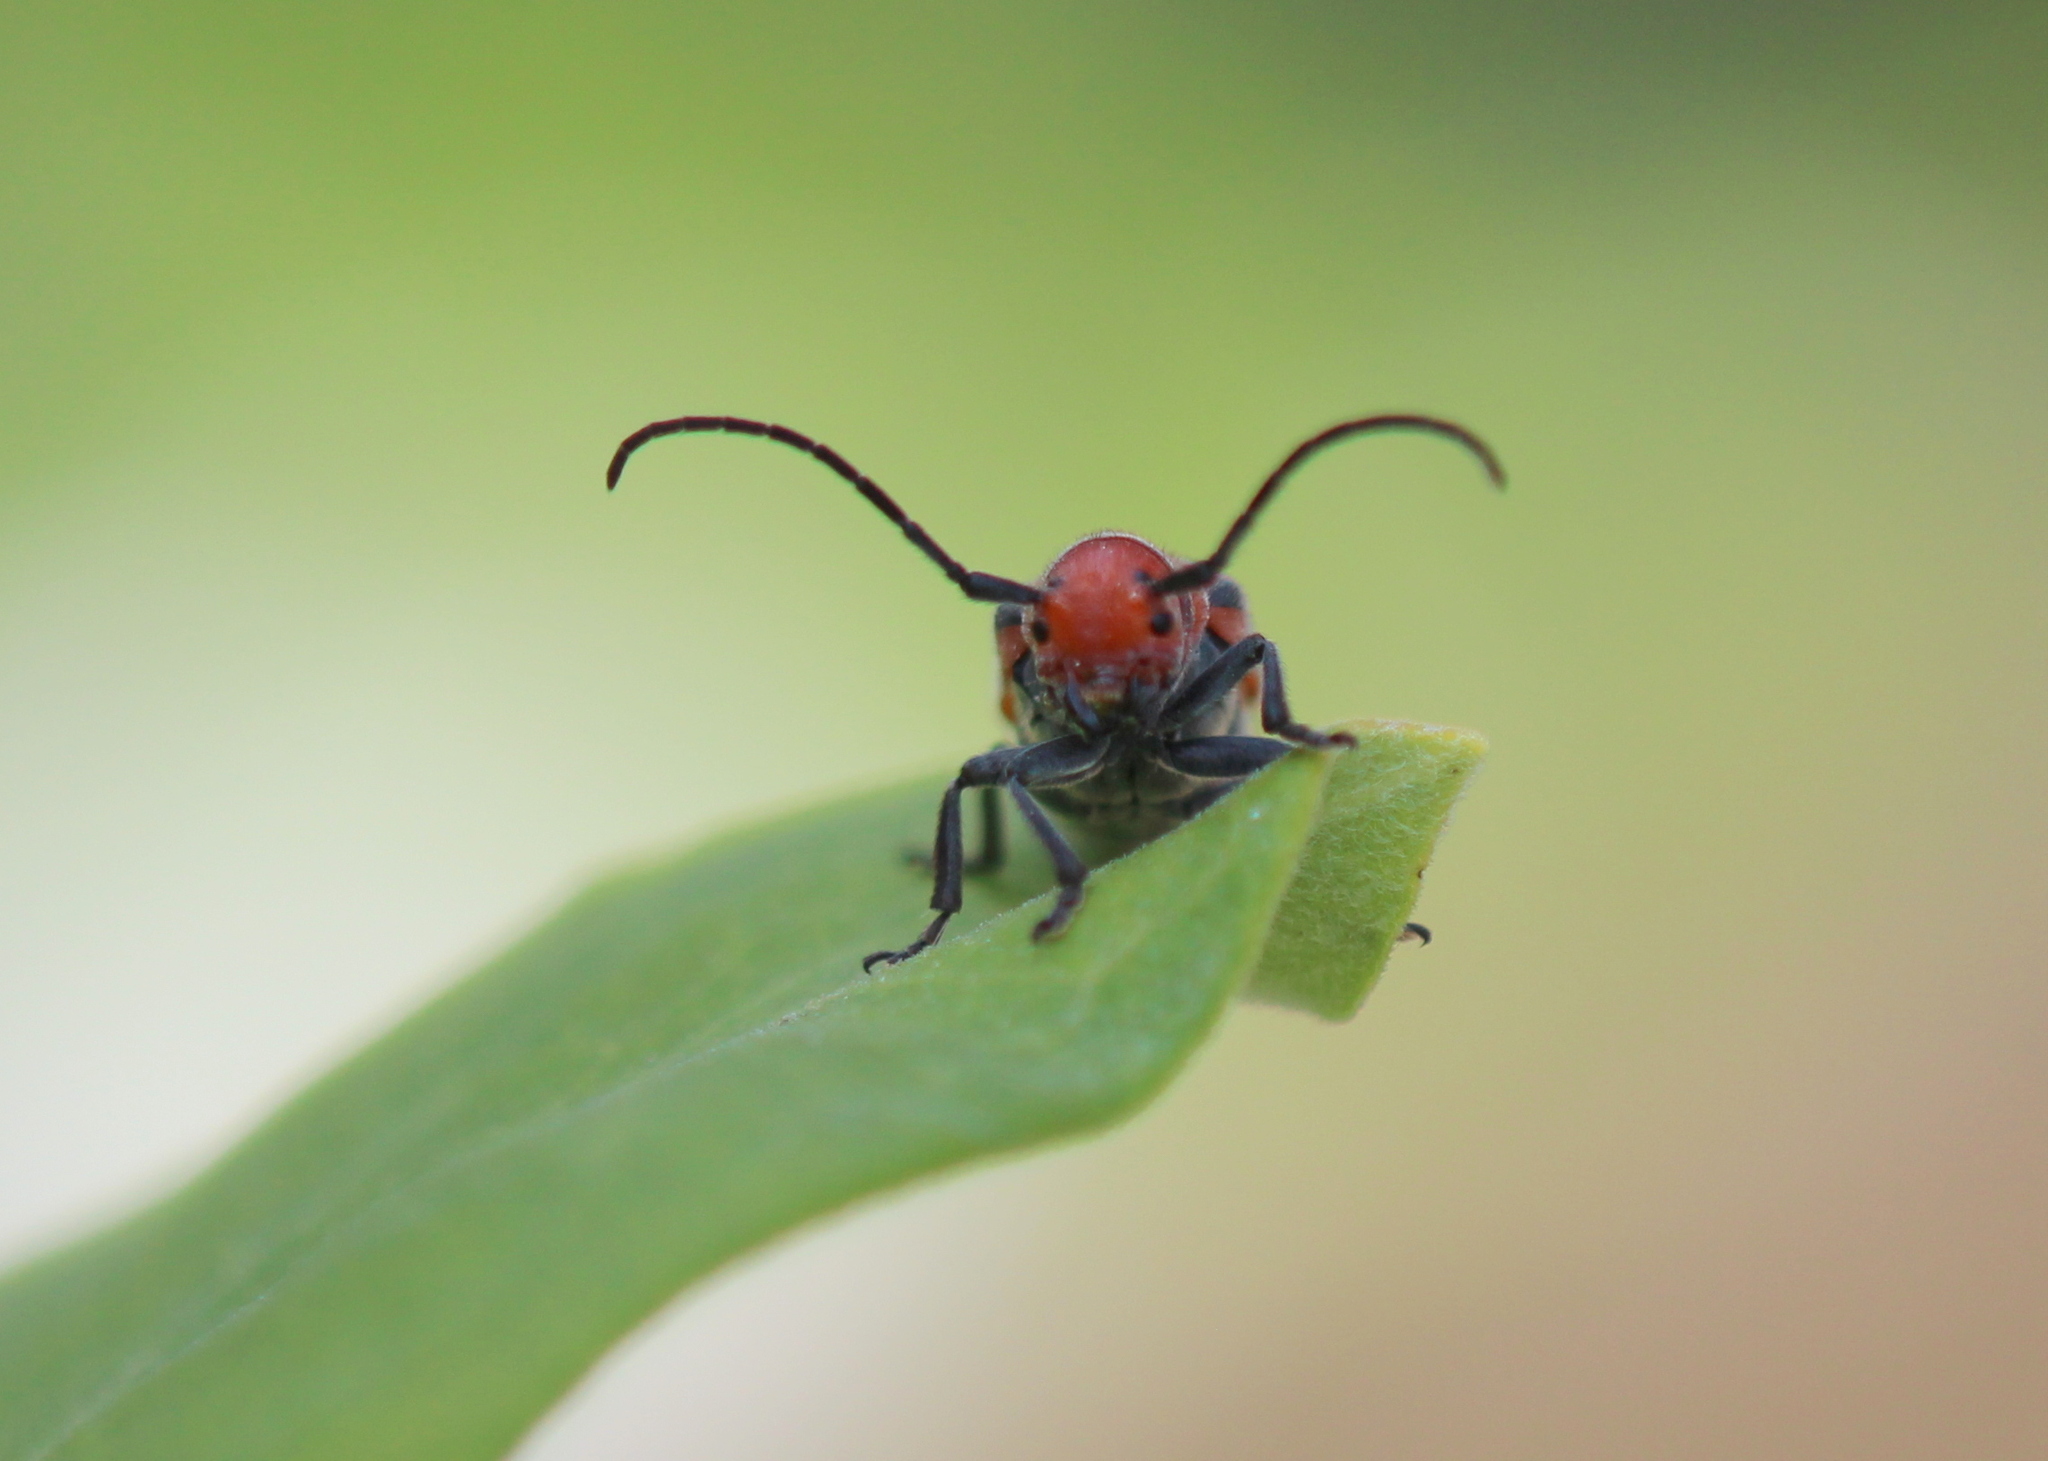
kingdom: Animalia
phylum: Arthropoda
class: Insecta
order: Coleoptera
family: Cerambycidae
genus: Tetraopes
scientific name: Tetraopes tetrophthalmus
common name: Red milkweed beetle
